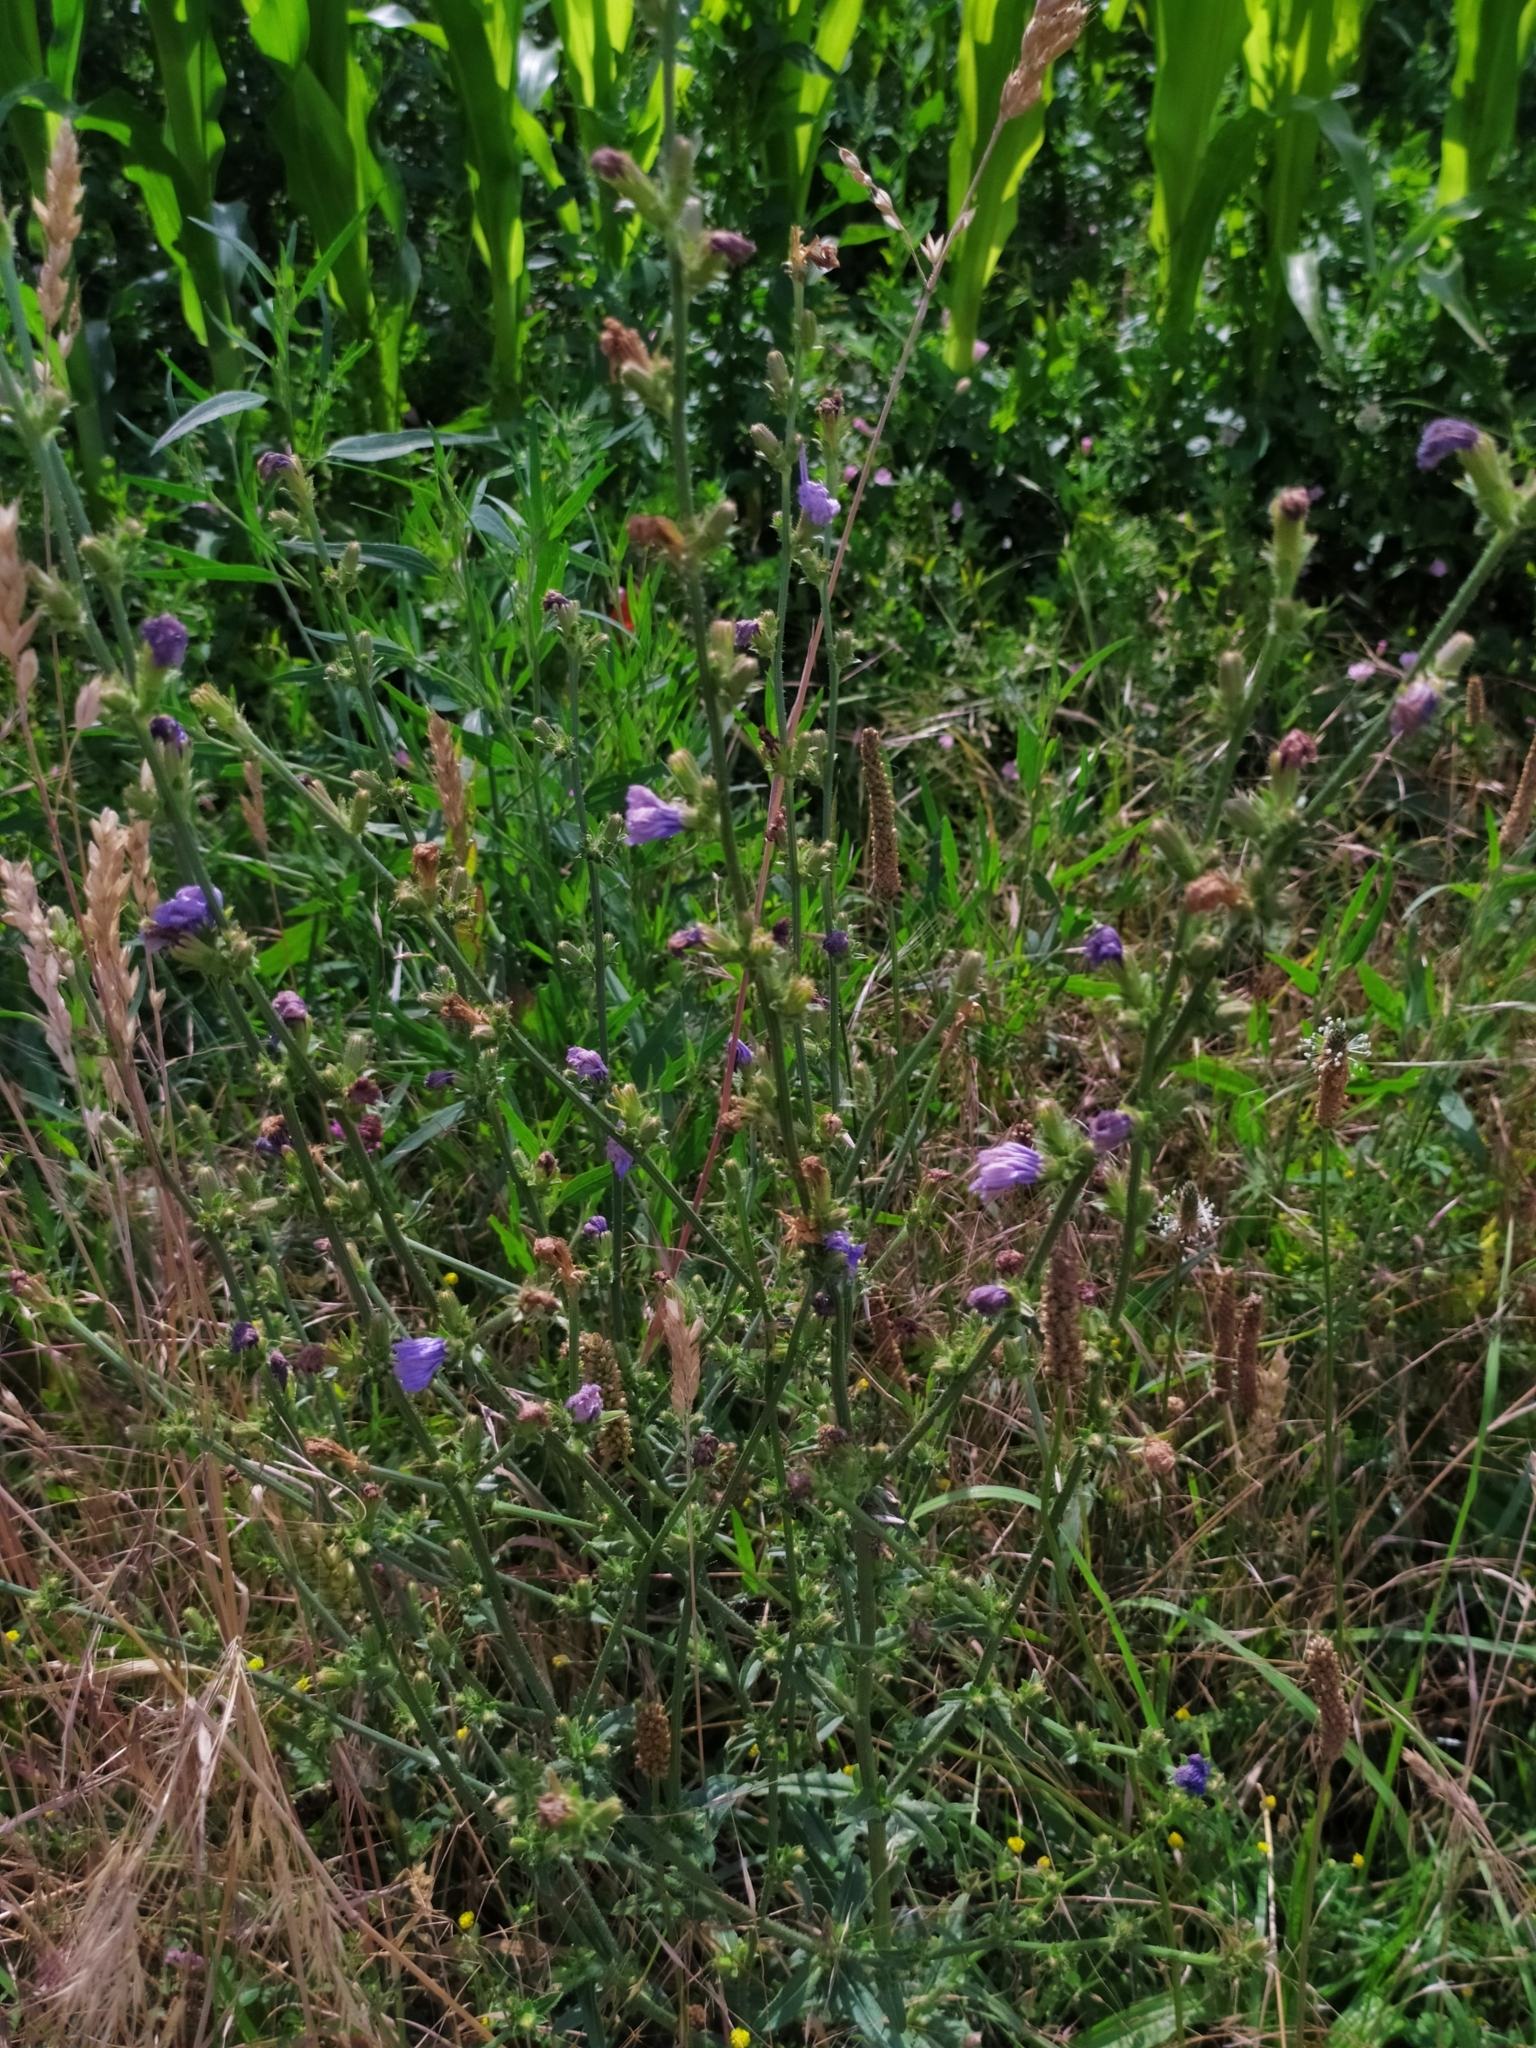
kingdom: Plantae
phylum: Tracheophyta
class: Magnoliopsida
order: Asterales
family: Asteraceae
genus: Cichorium
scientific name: Cichorium intybus
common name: Chicory
